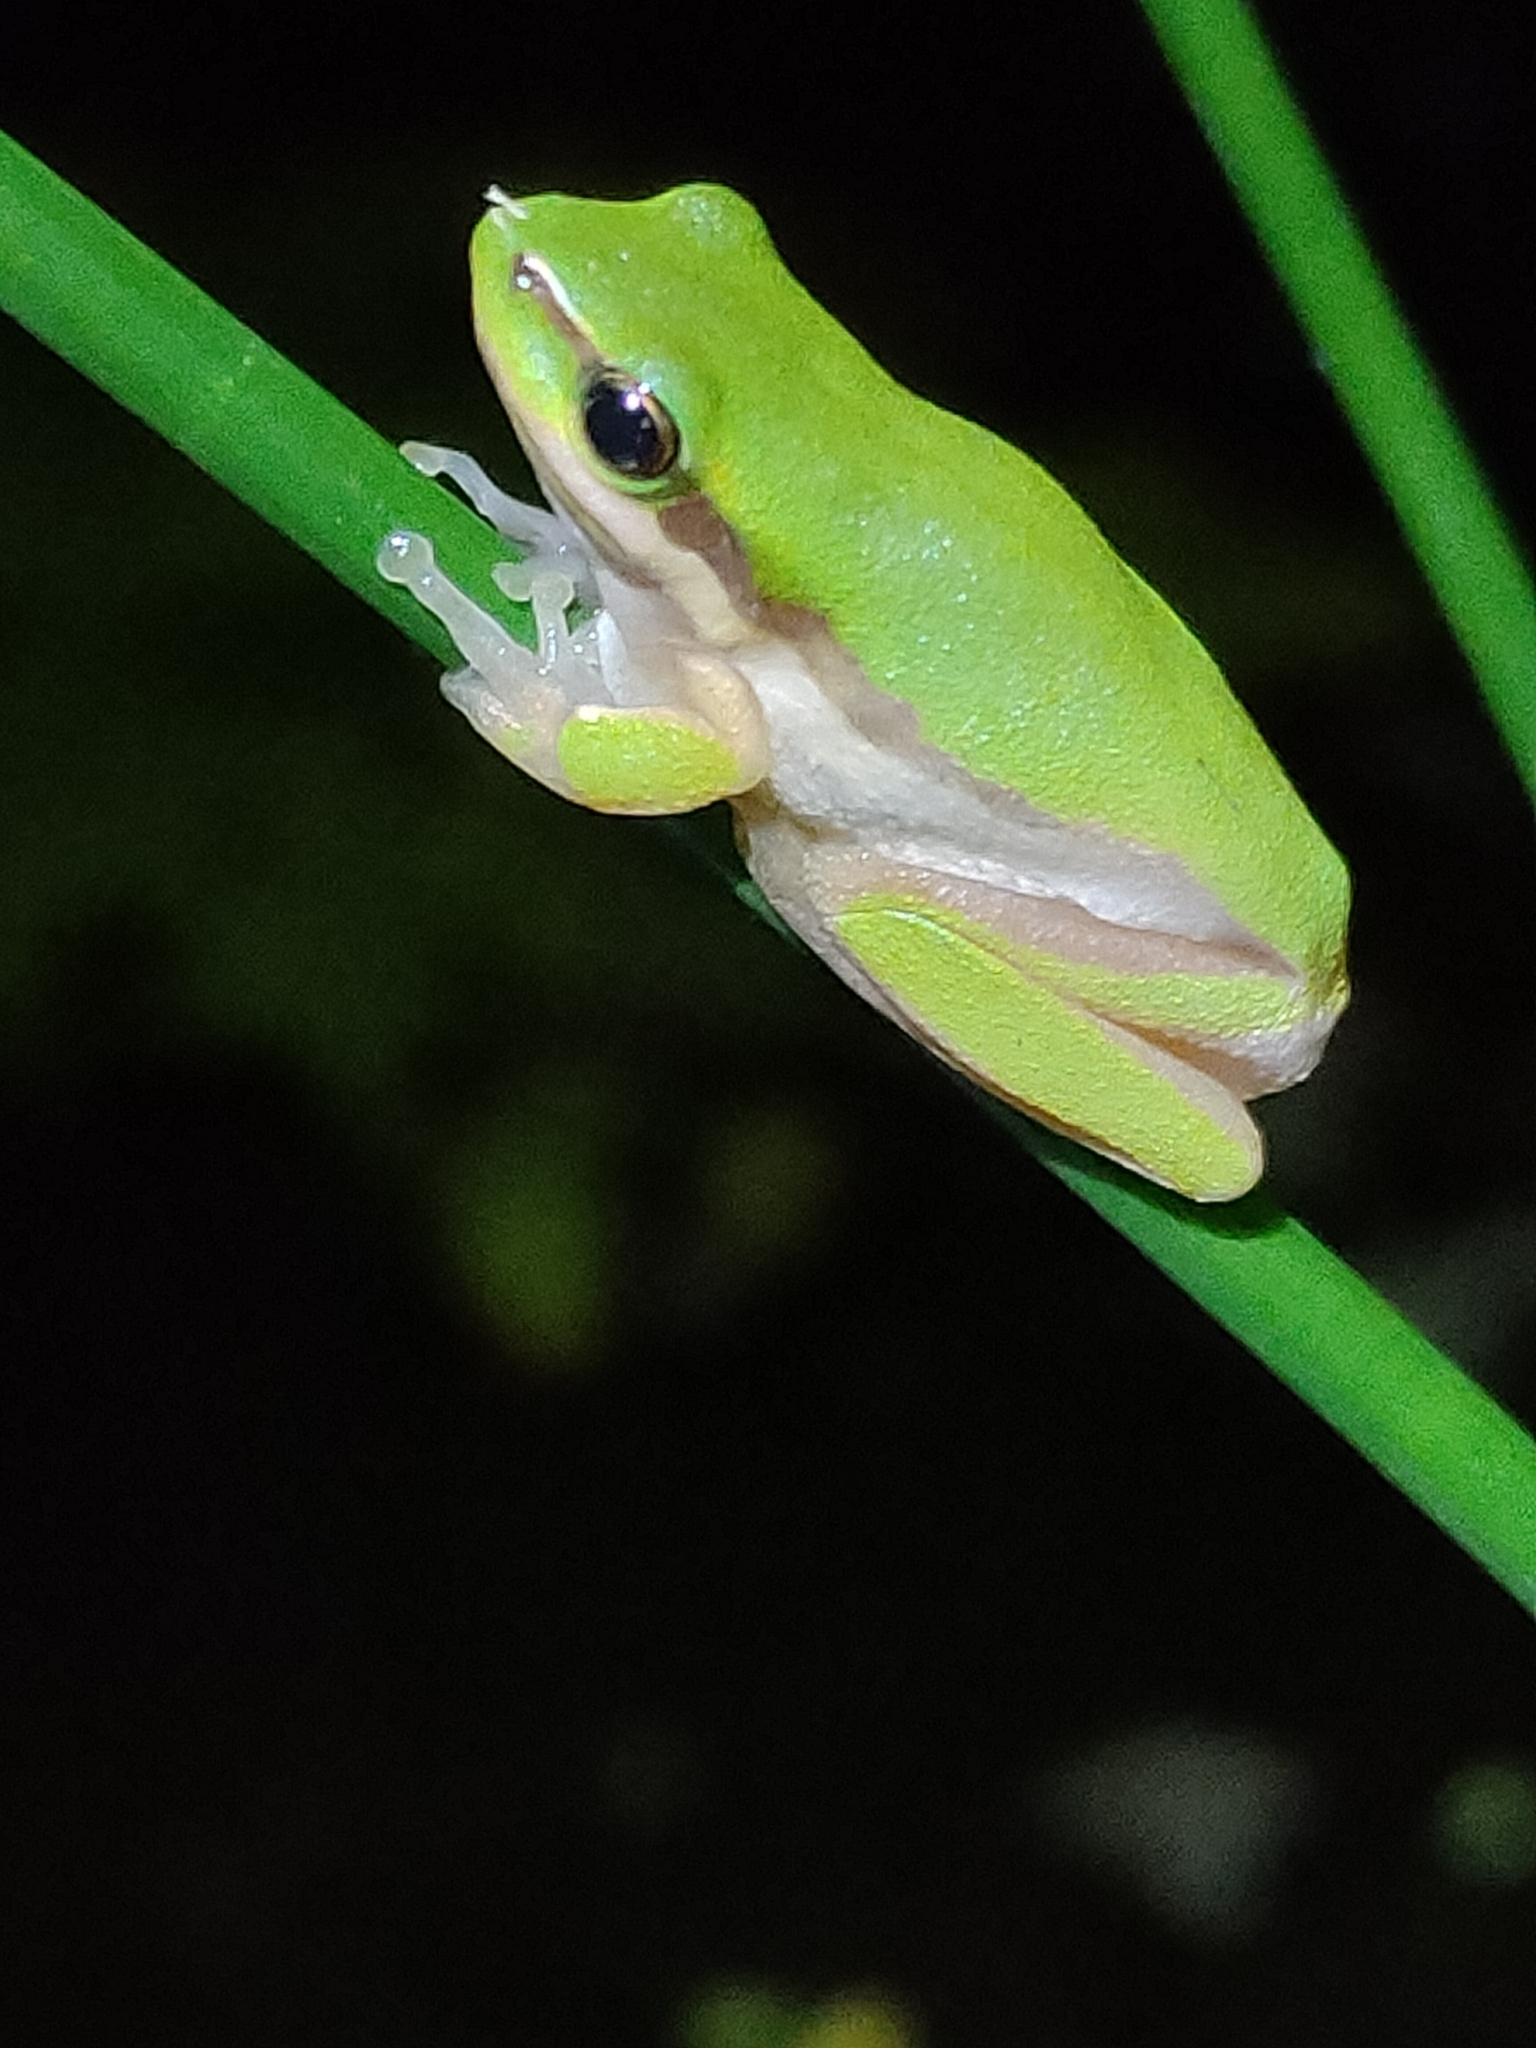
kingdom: Animalia
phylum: Chordata
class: Amphibia
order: Anura
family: Pelodryadidae
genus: Litoria
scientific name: Litoria fallax
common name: Eastern dwarf treefrog
